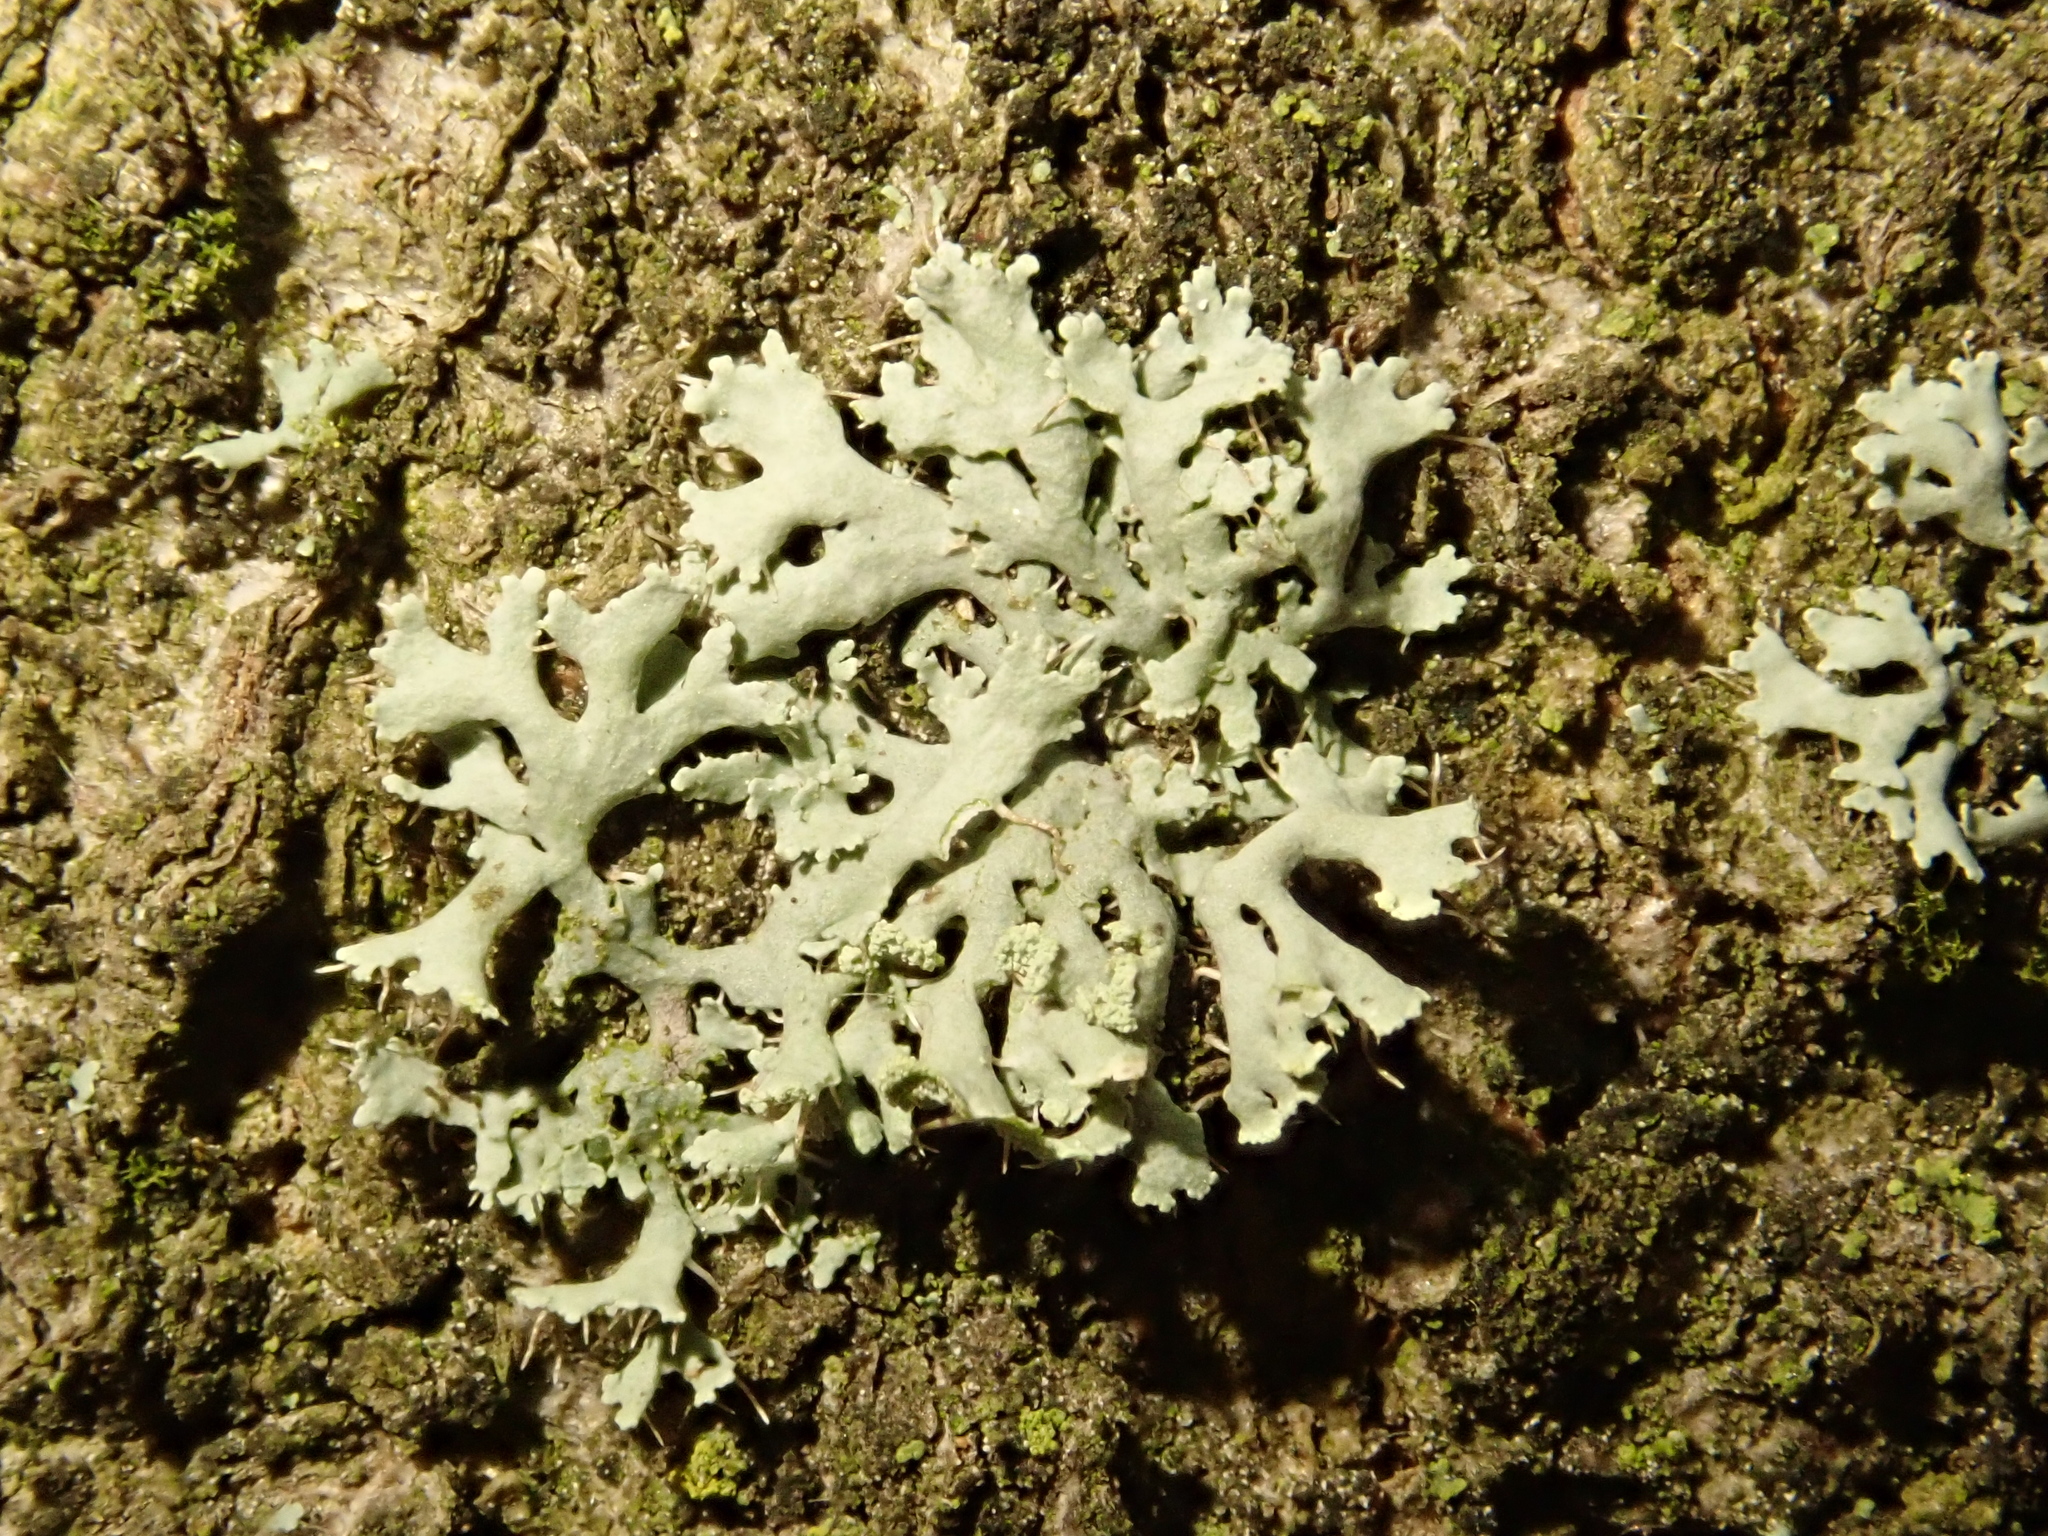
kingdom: Fungi
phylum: Ascomycota
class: Lecanoromycetes
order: Caliciales
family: Physciaceae
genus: Physcia
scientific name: Physcia tenella
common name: Fringed rosette lichen
